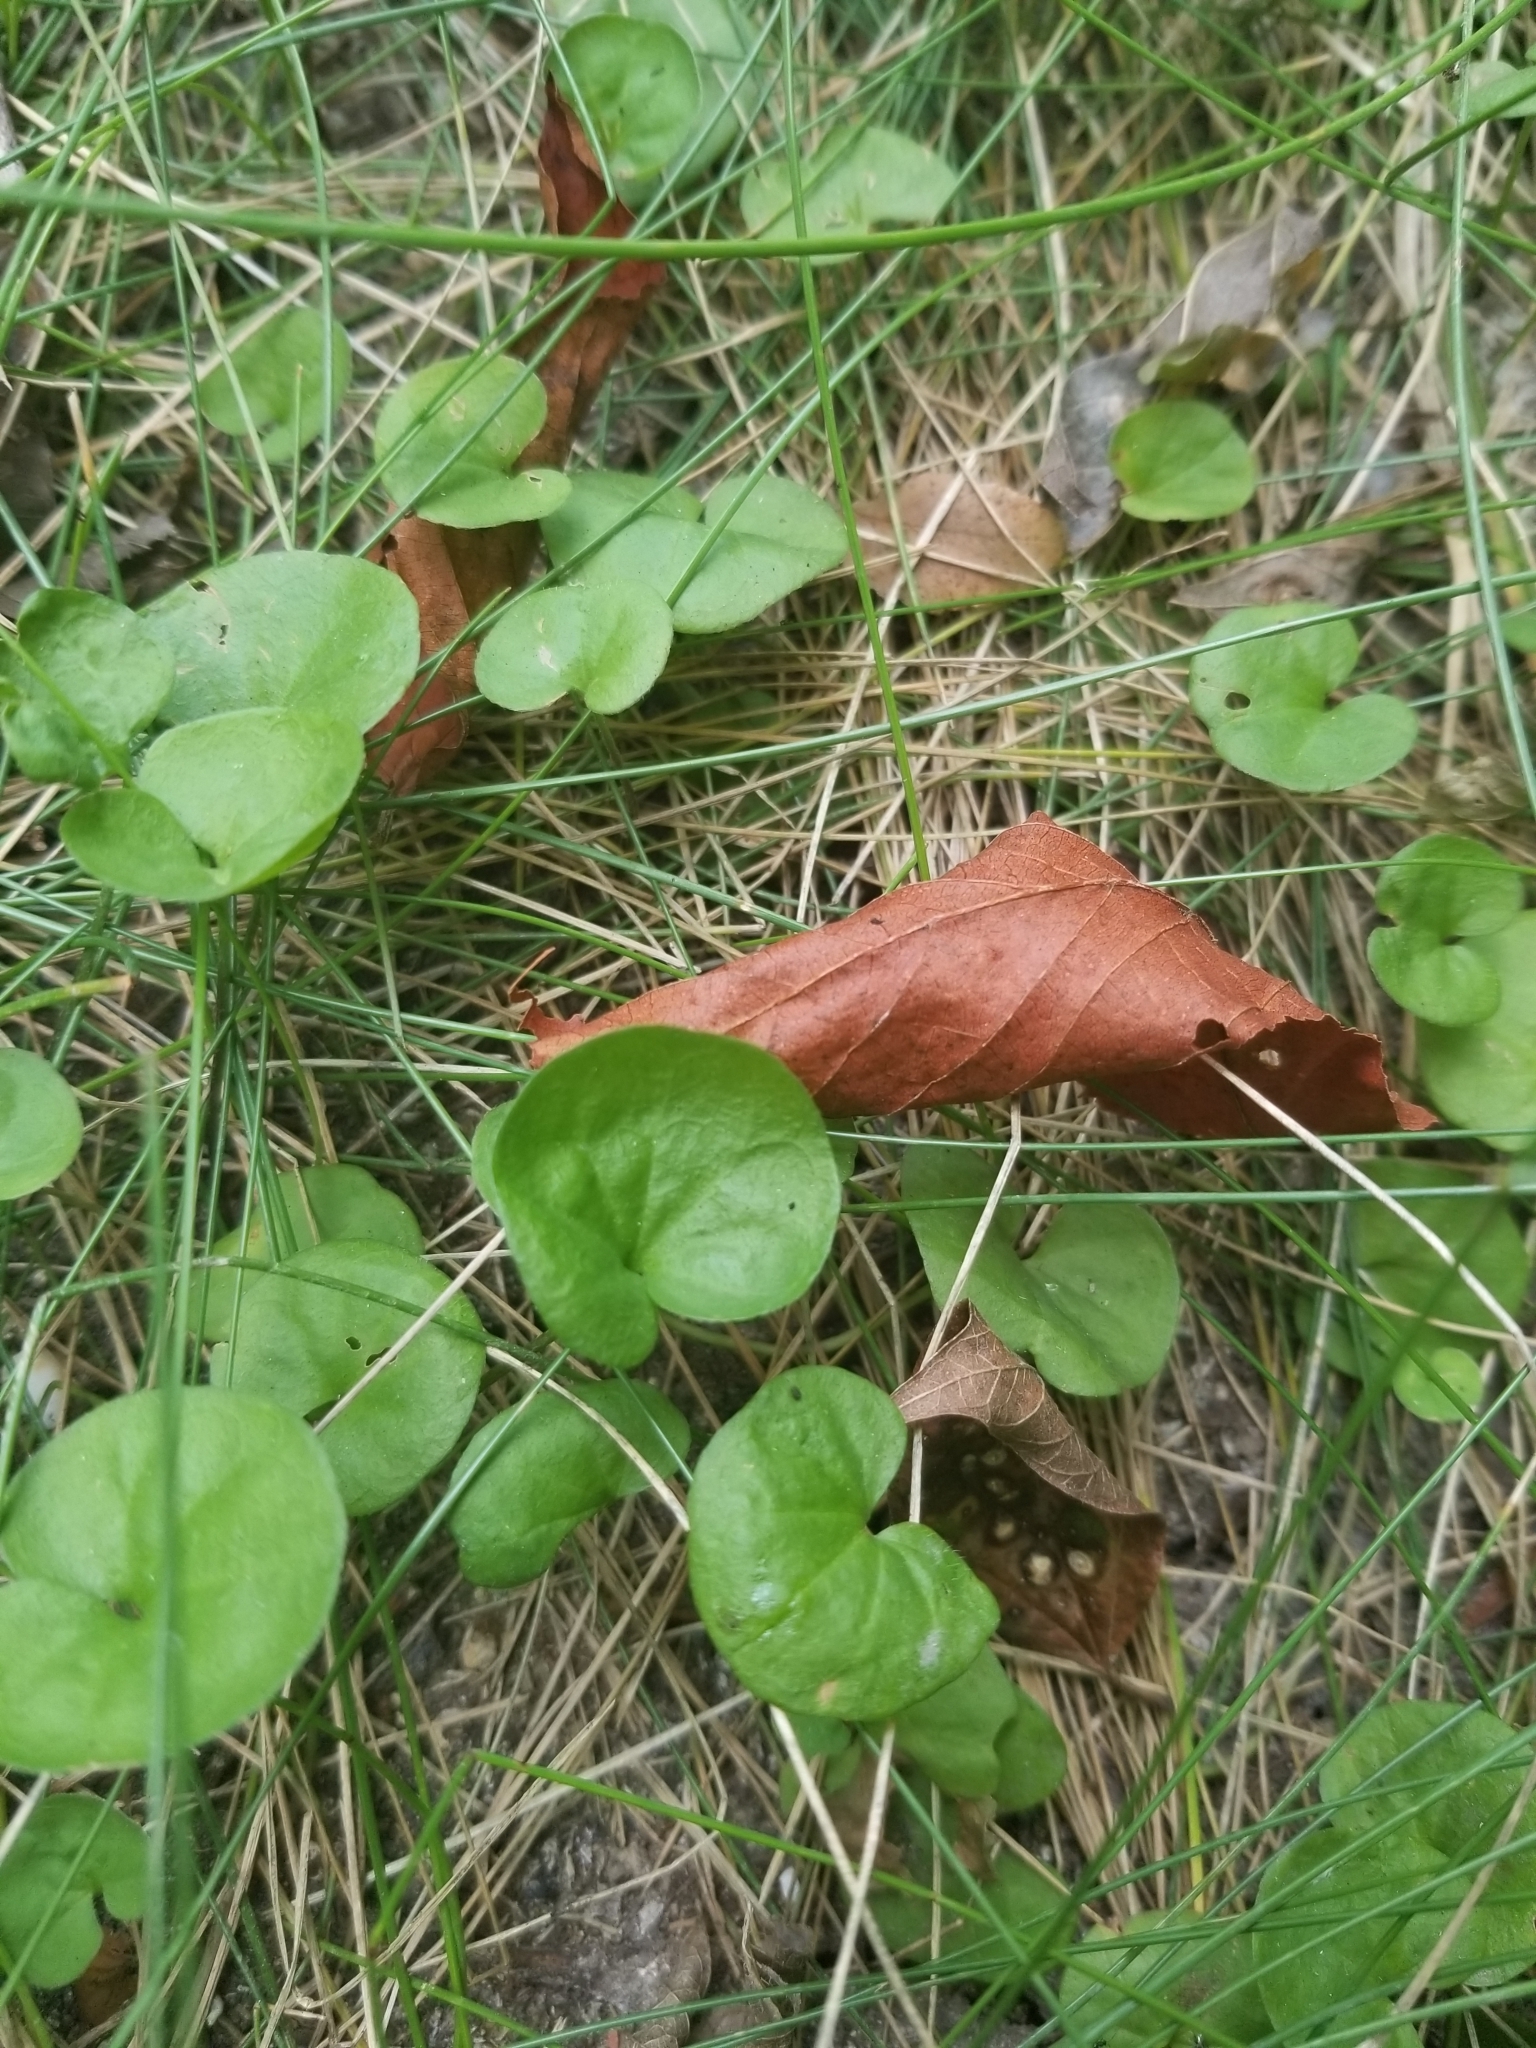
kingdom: Plantae
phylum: Tracheophyta
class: Magnoliopsida
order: Solanales
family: Convolvulaceae
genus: Dichondra
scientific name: Dichondra carolinensis
